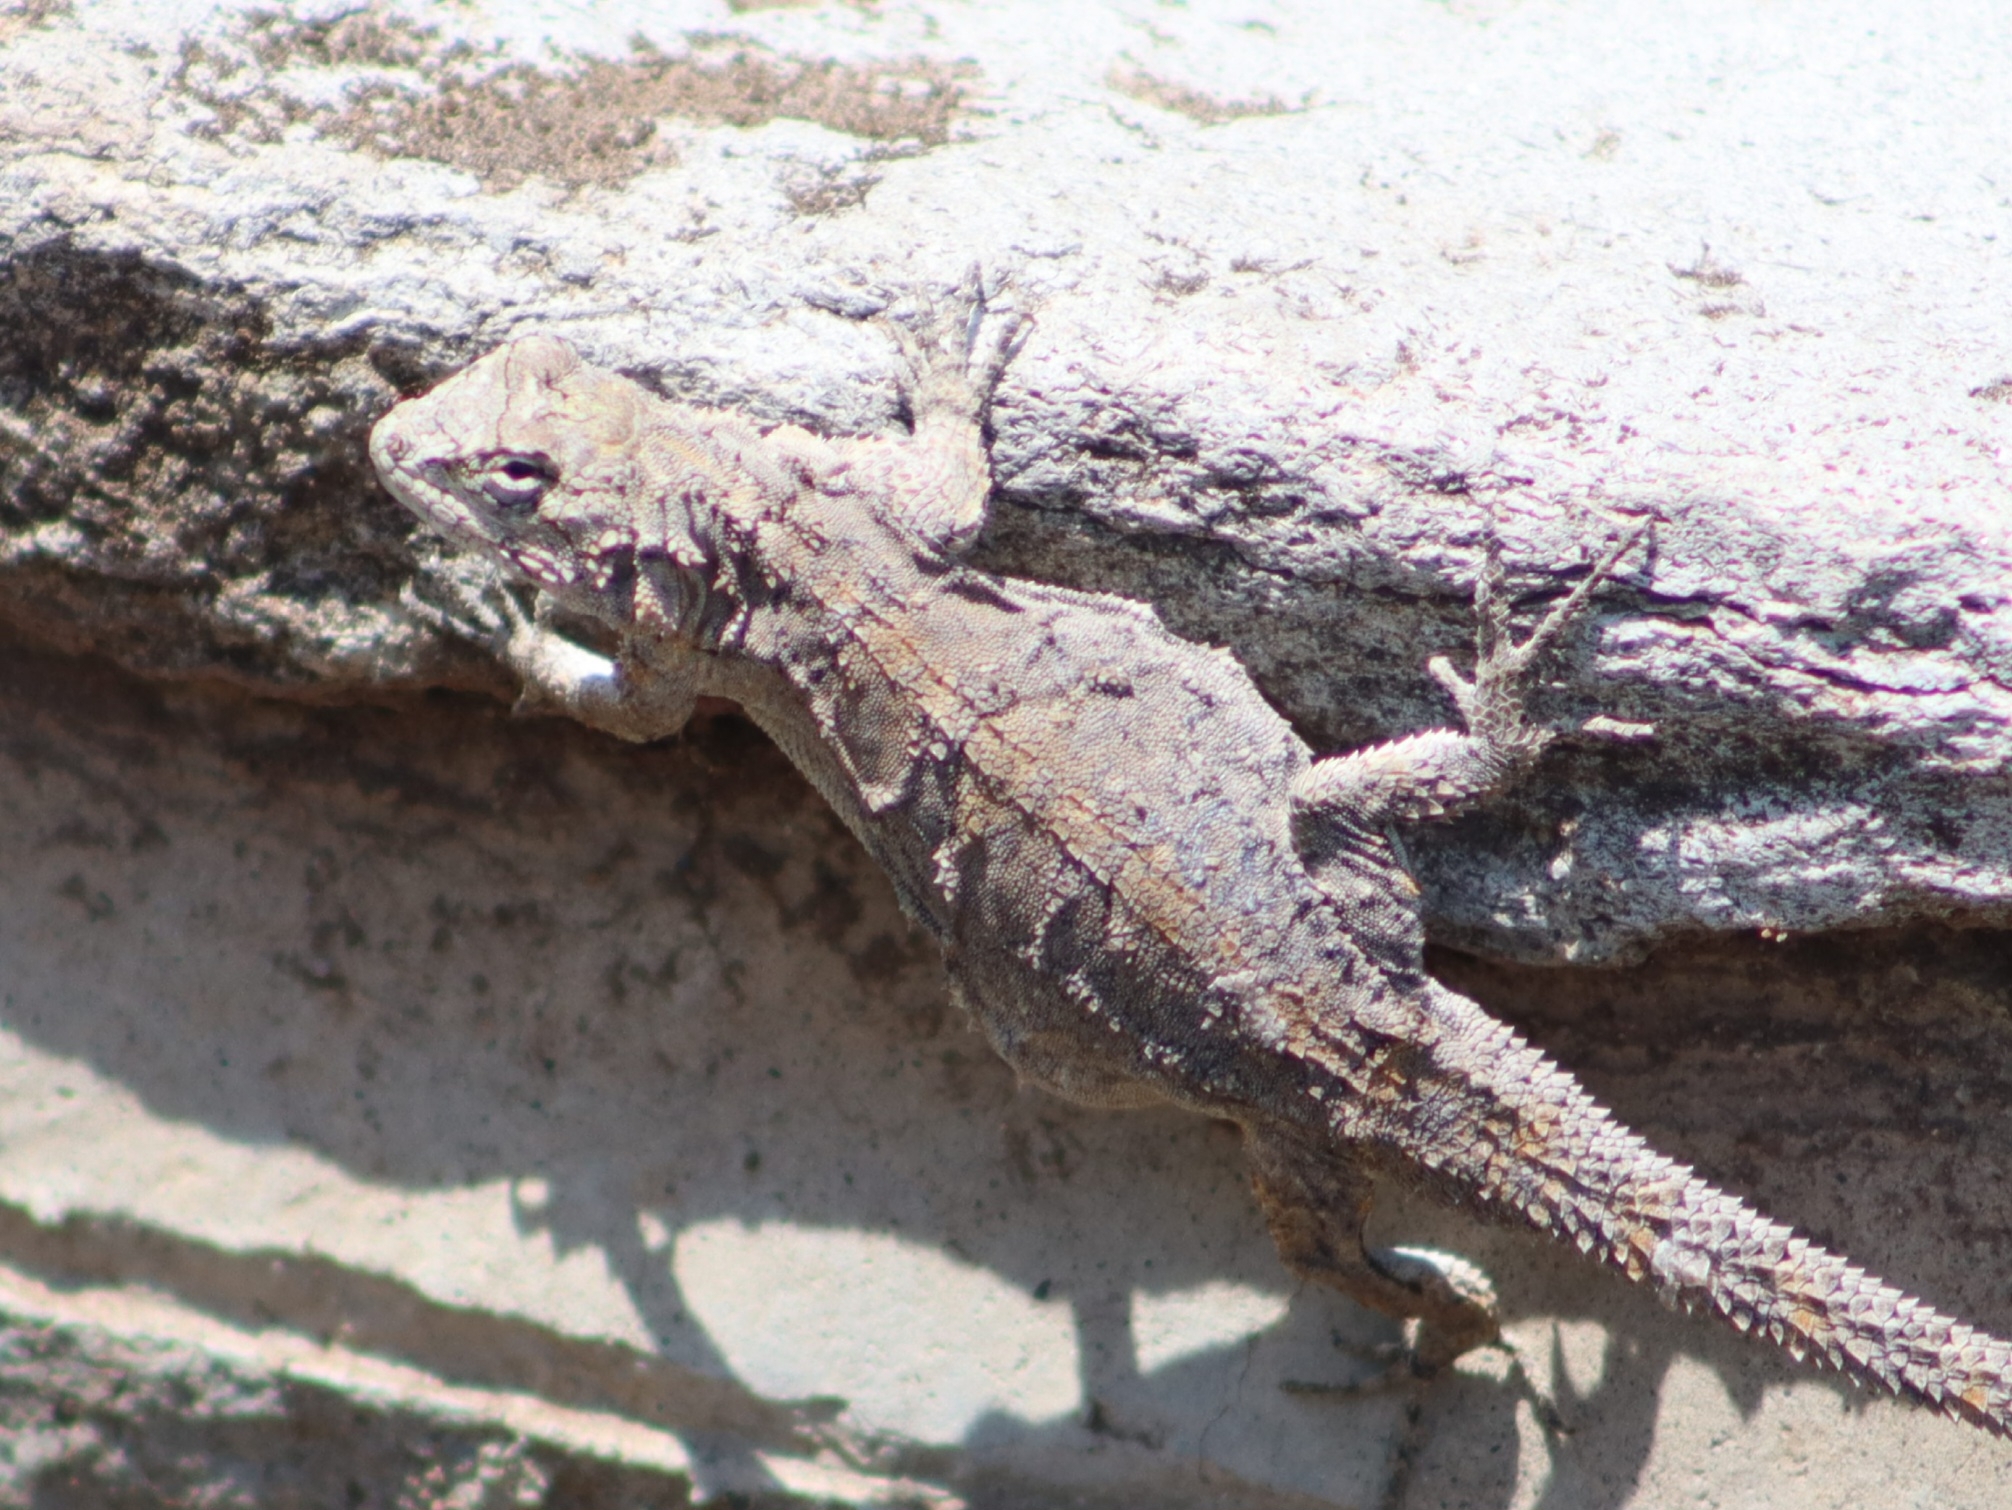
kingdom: Animalia
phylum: Chordata
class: Squamata
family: Phrynosomatidae
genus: Urosaurus
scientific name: Urosaurus bicarinatus
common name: Tropical tree lizard
